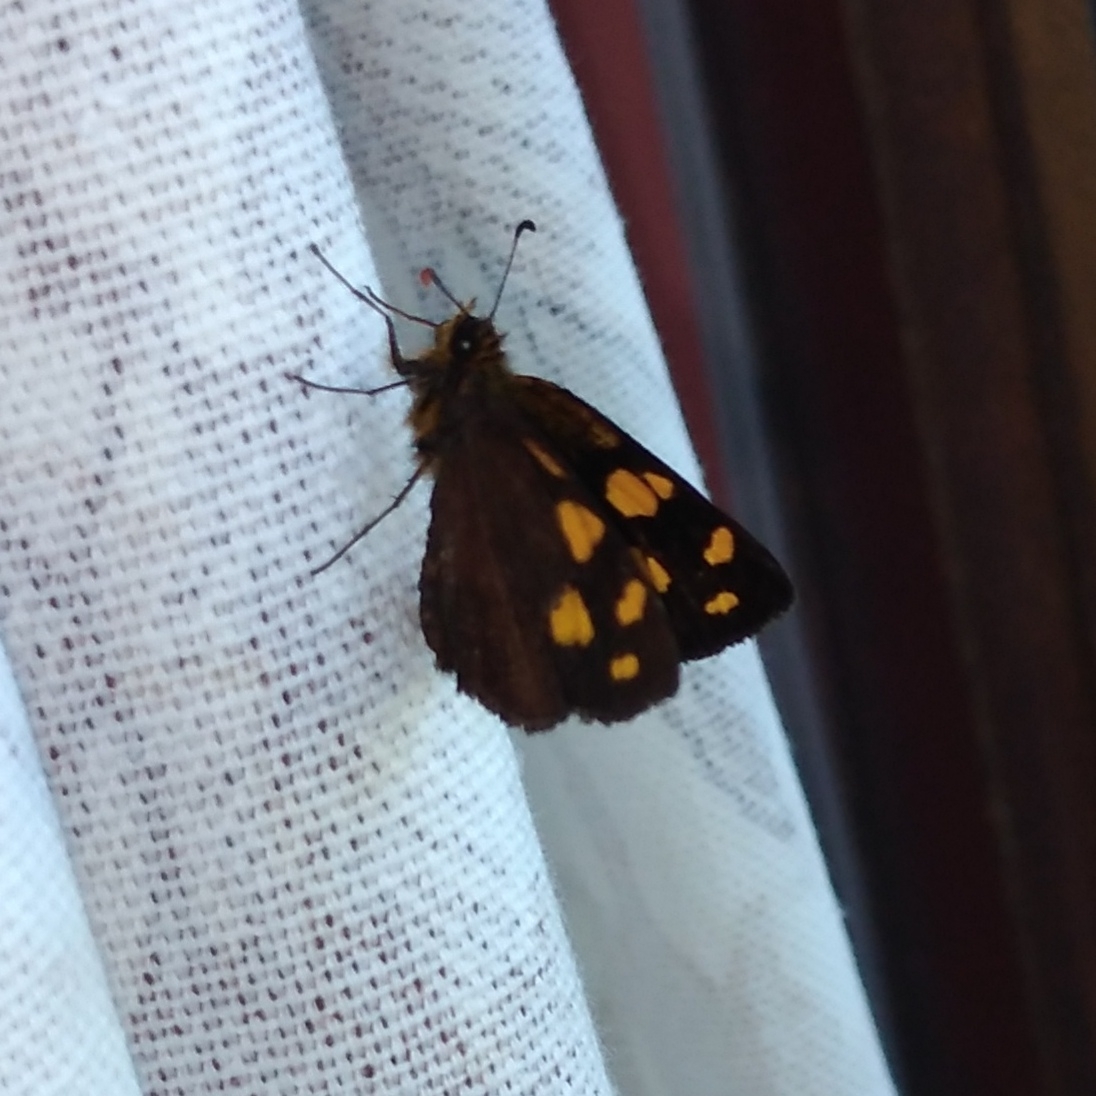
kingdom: Animalia
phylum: Arthropoda
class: Insecta
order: Lepidoptera
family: Hesperiidae
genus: Metisella
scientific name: Metisella metis
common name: Western gold-spotted sylph
